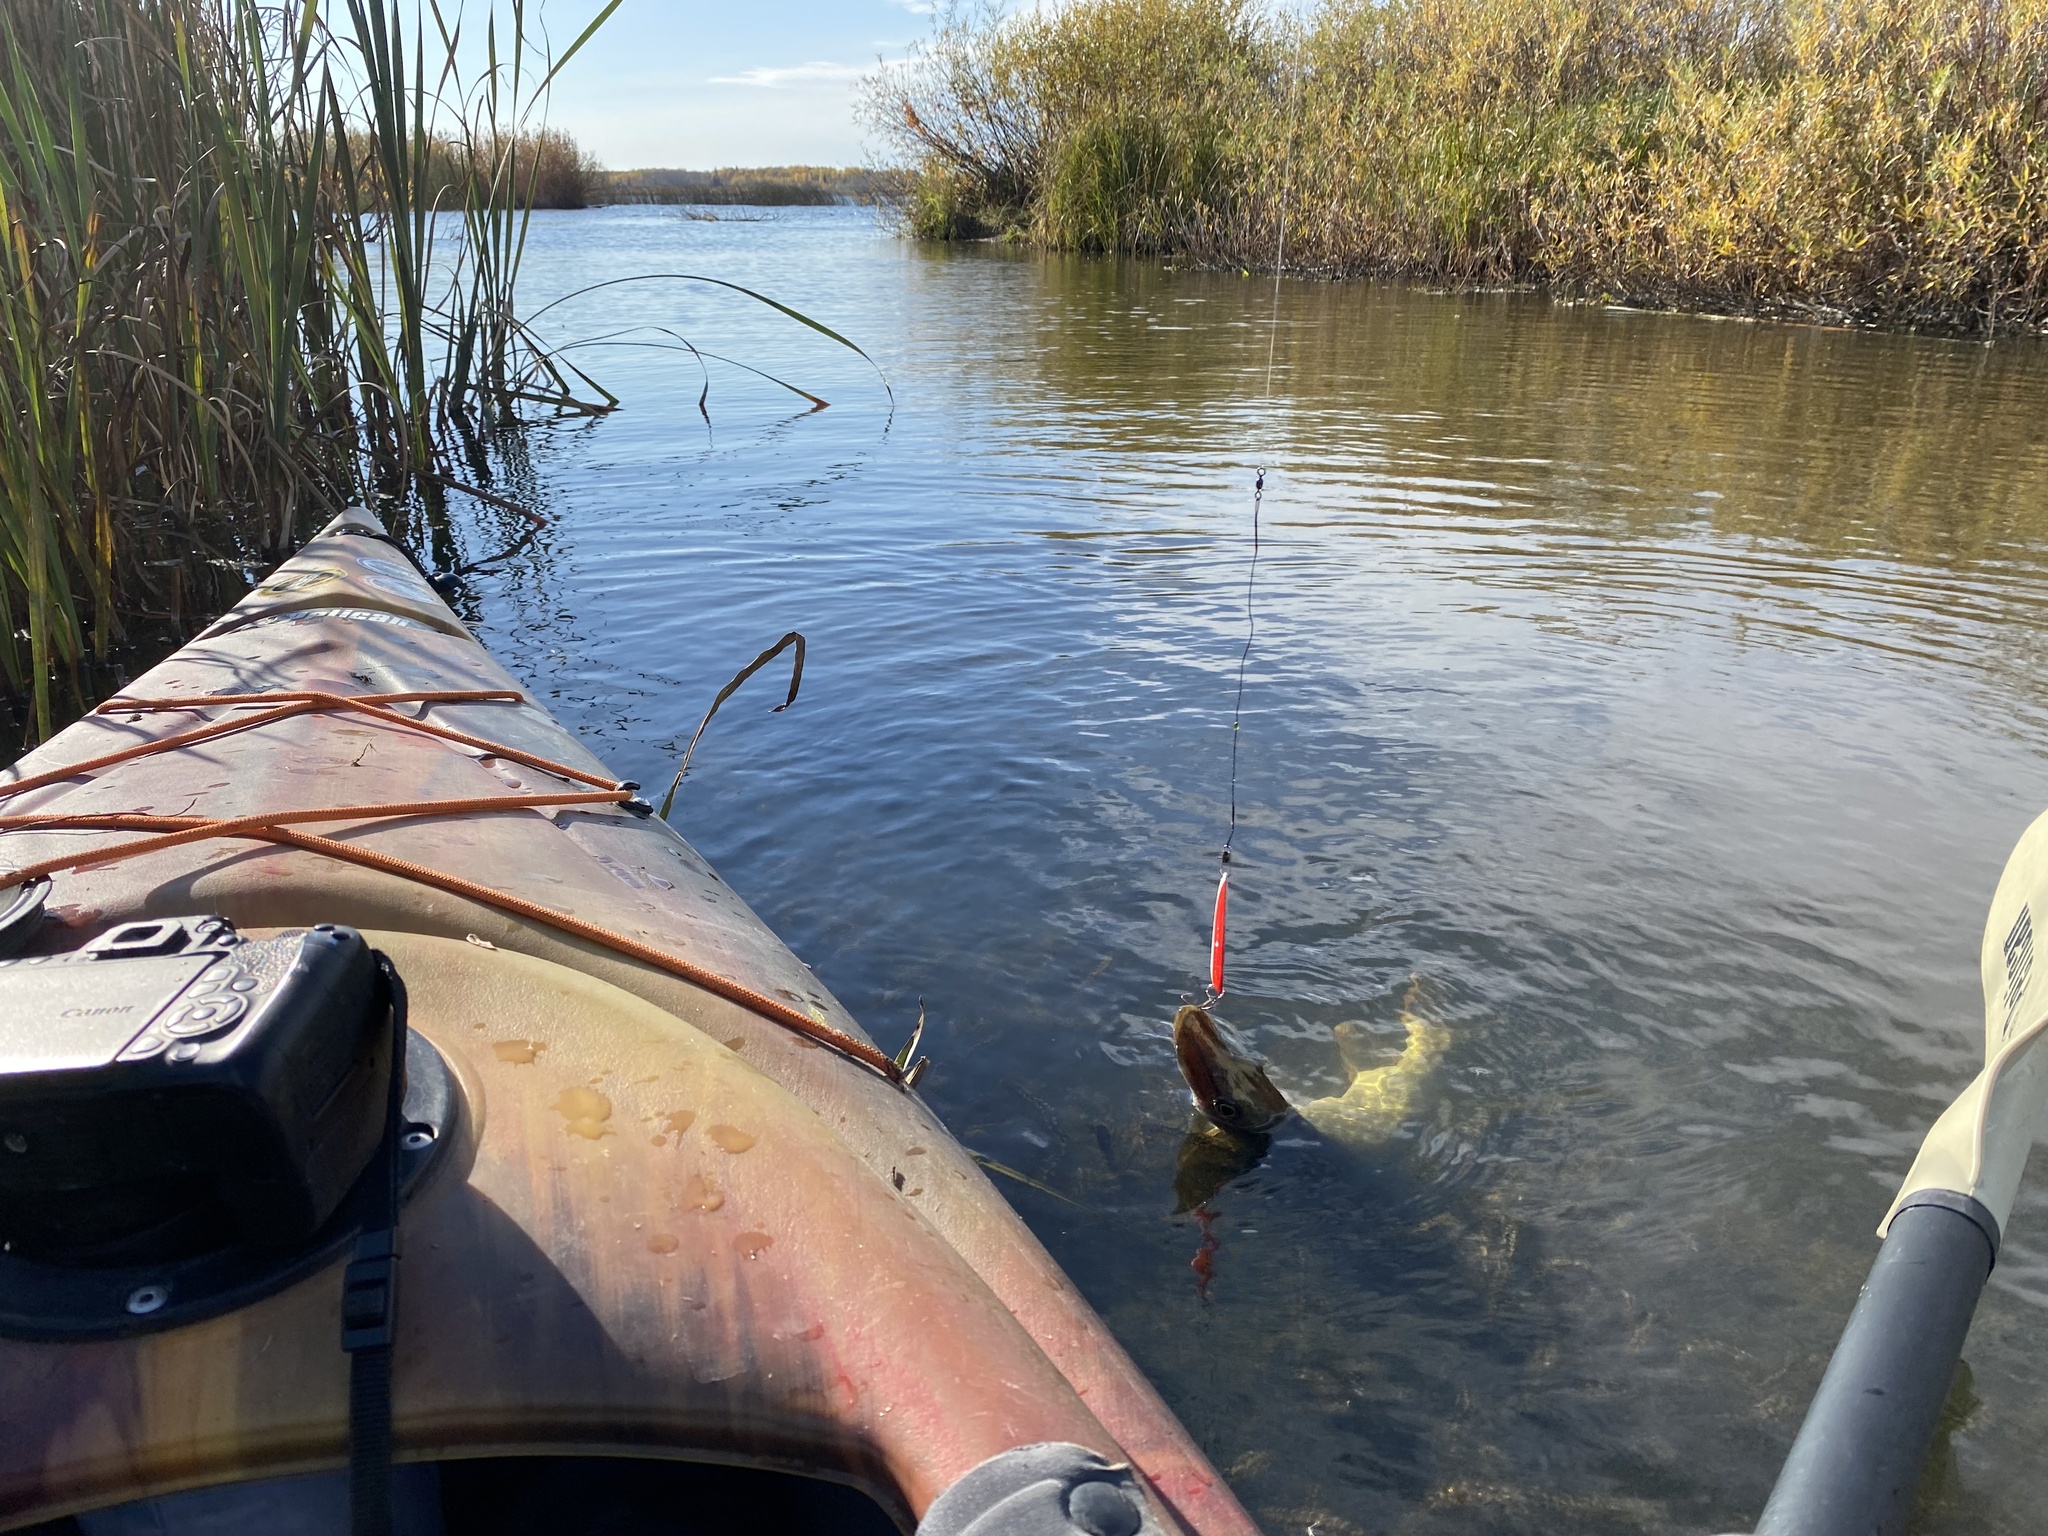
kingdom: Animalia
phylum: Chordata
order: Esociformes
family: Esocidae
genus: Esox
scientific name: Esox lucius
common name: Northern pike
